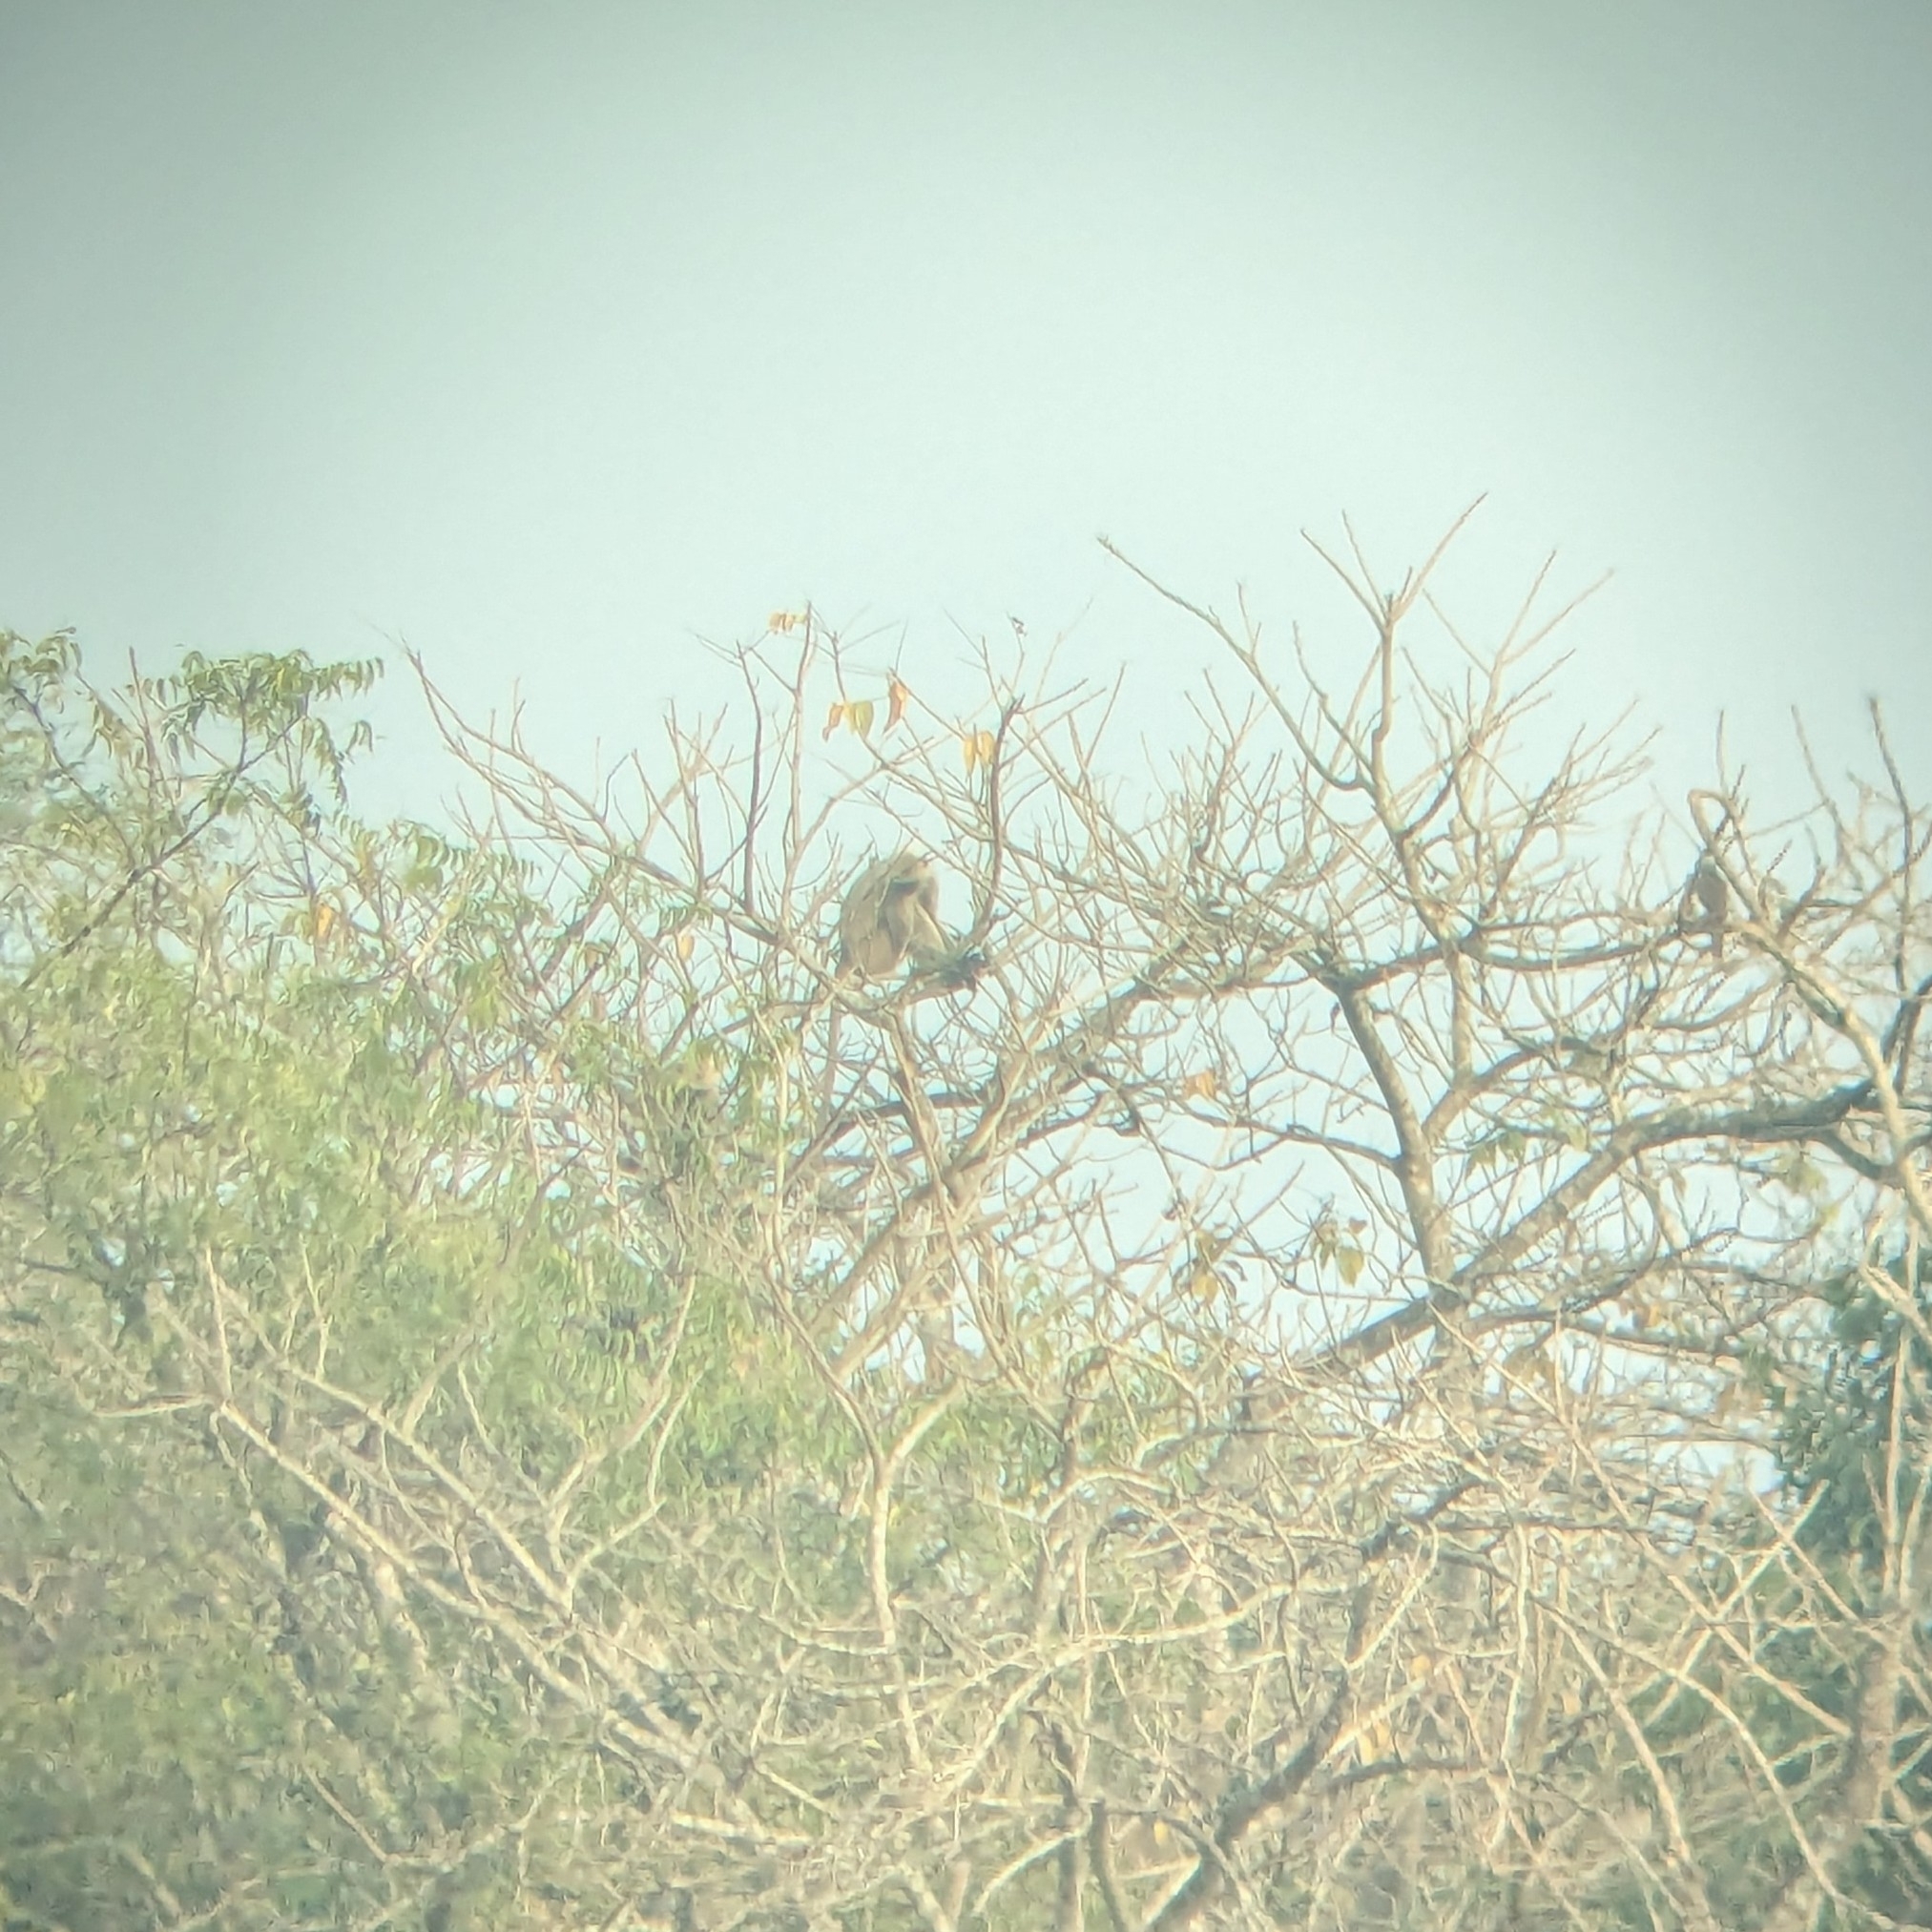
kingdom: Animalia
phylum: Chordata
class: Mammalia
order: Primates
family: Cercopithecidae
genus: Semnopithecus
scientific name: Semnopithecus entellus
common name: Northern plains gray langur
